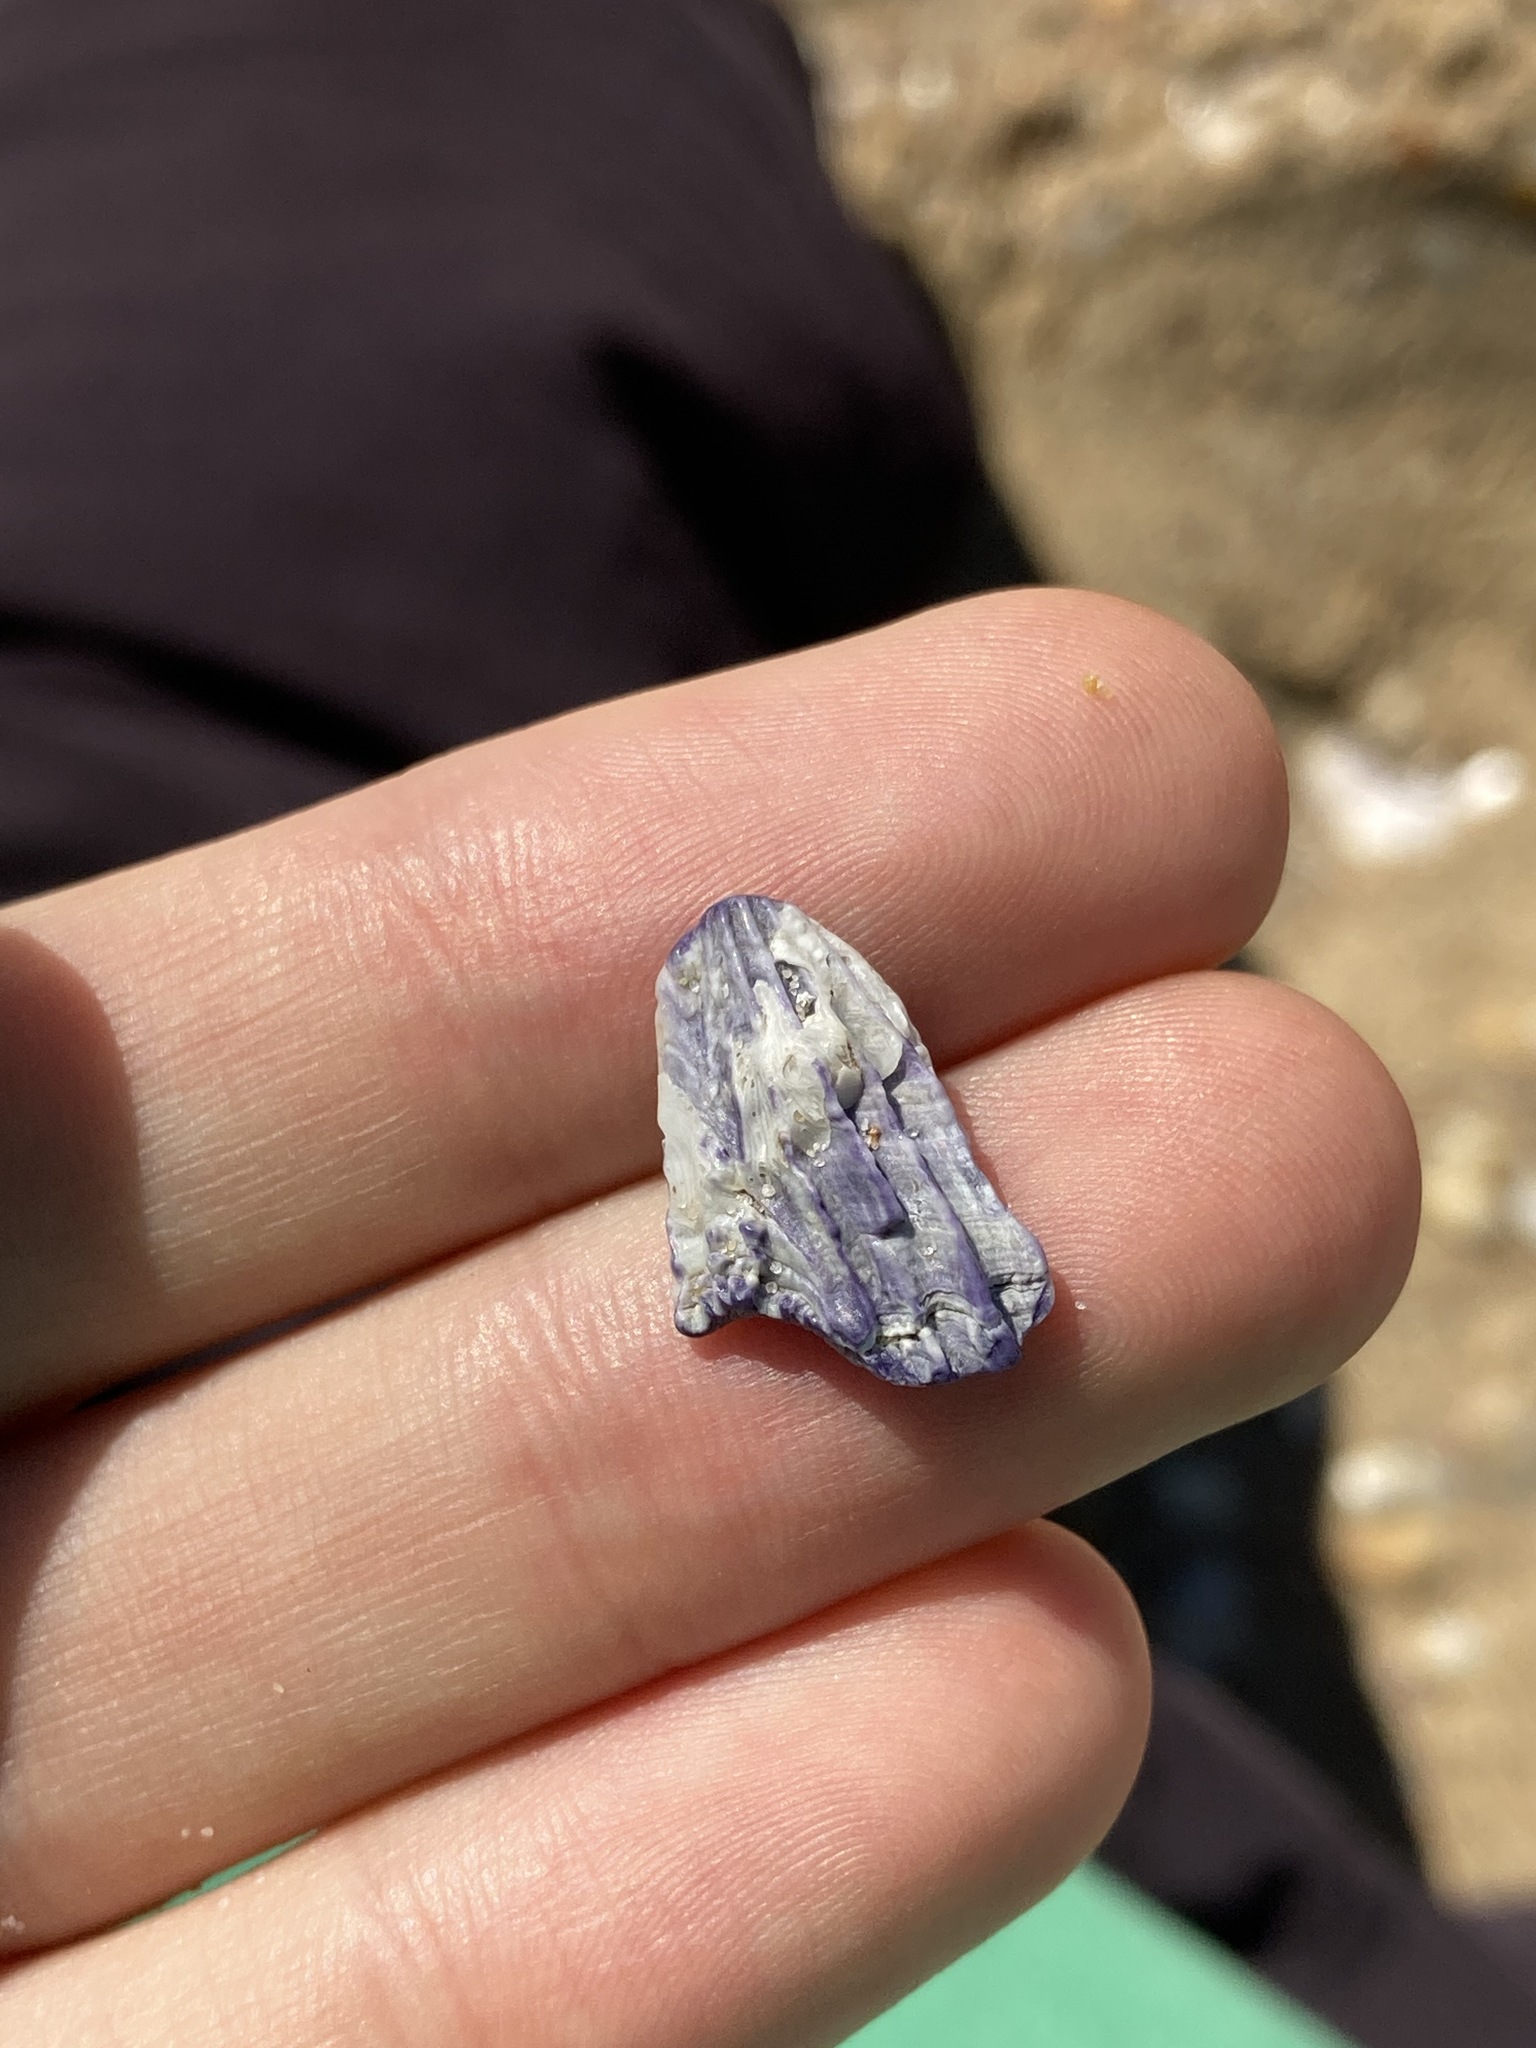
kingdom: Animalia
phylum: Arthropoda
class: Maxillopoda
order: Sessilia
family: Austrobalanidae
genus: Austrobalanus
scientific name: Austrobalanus imperator
